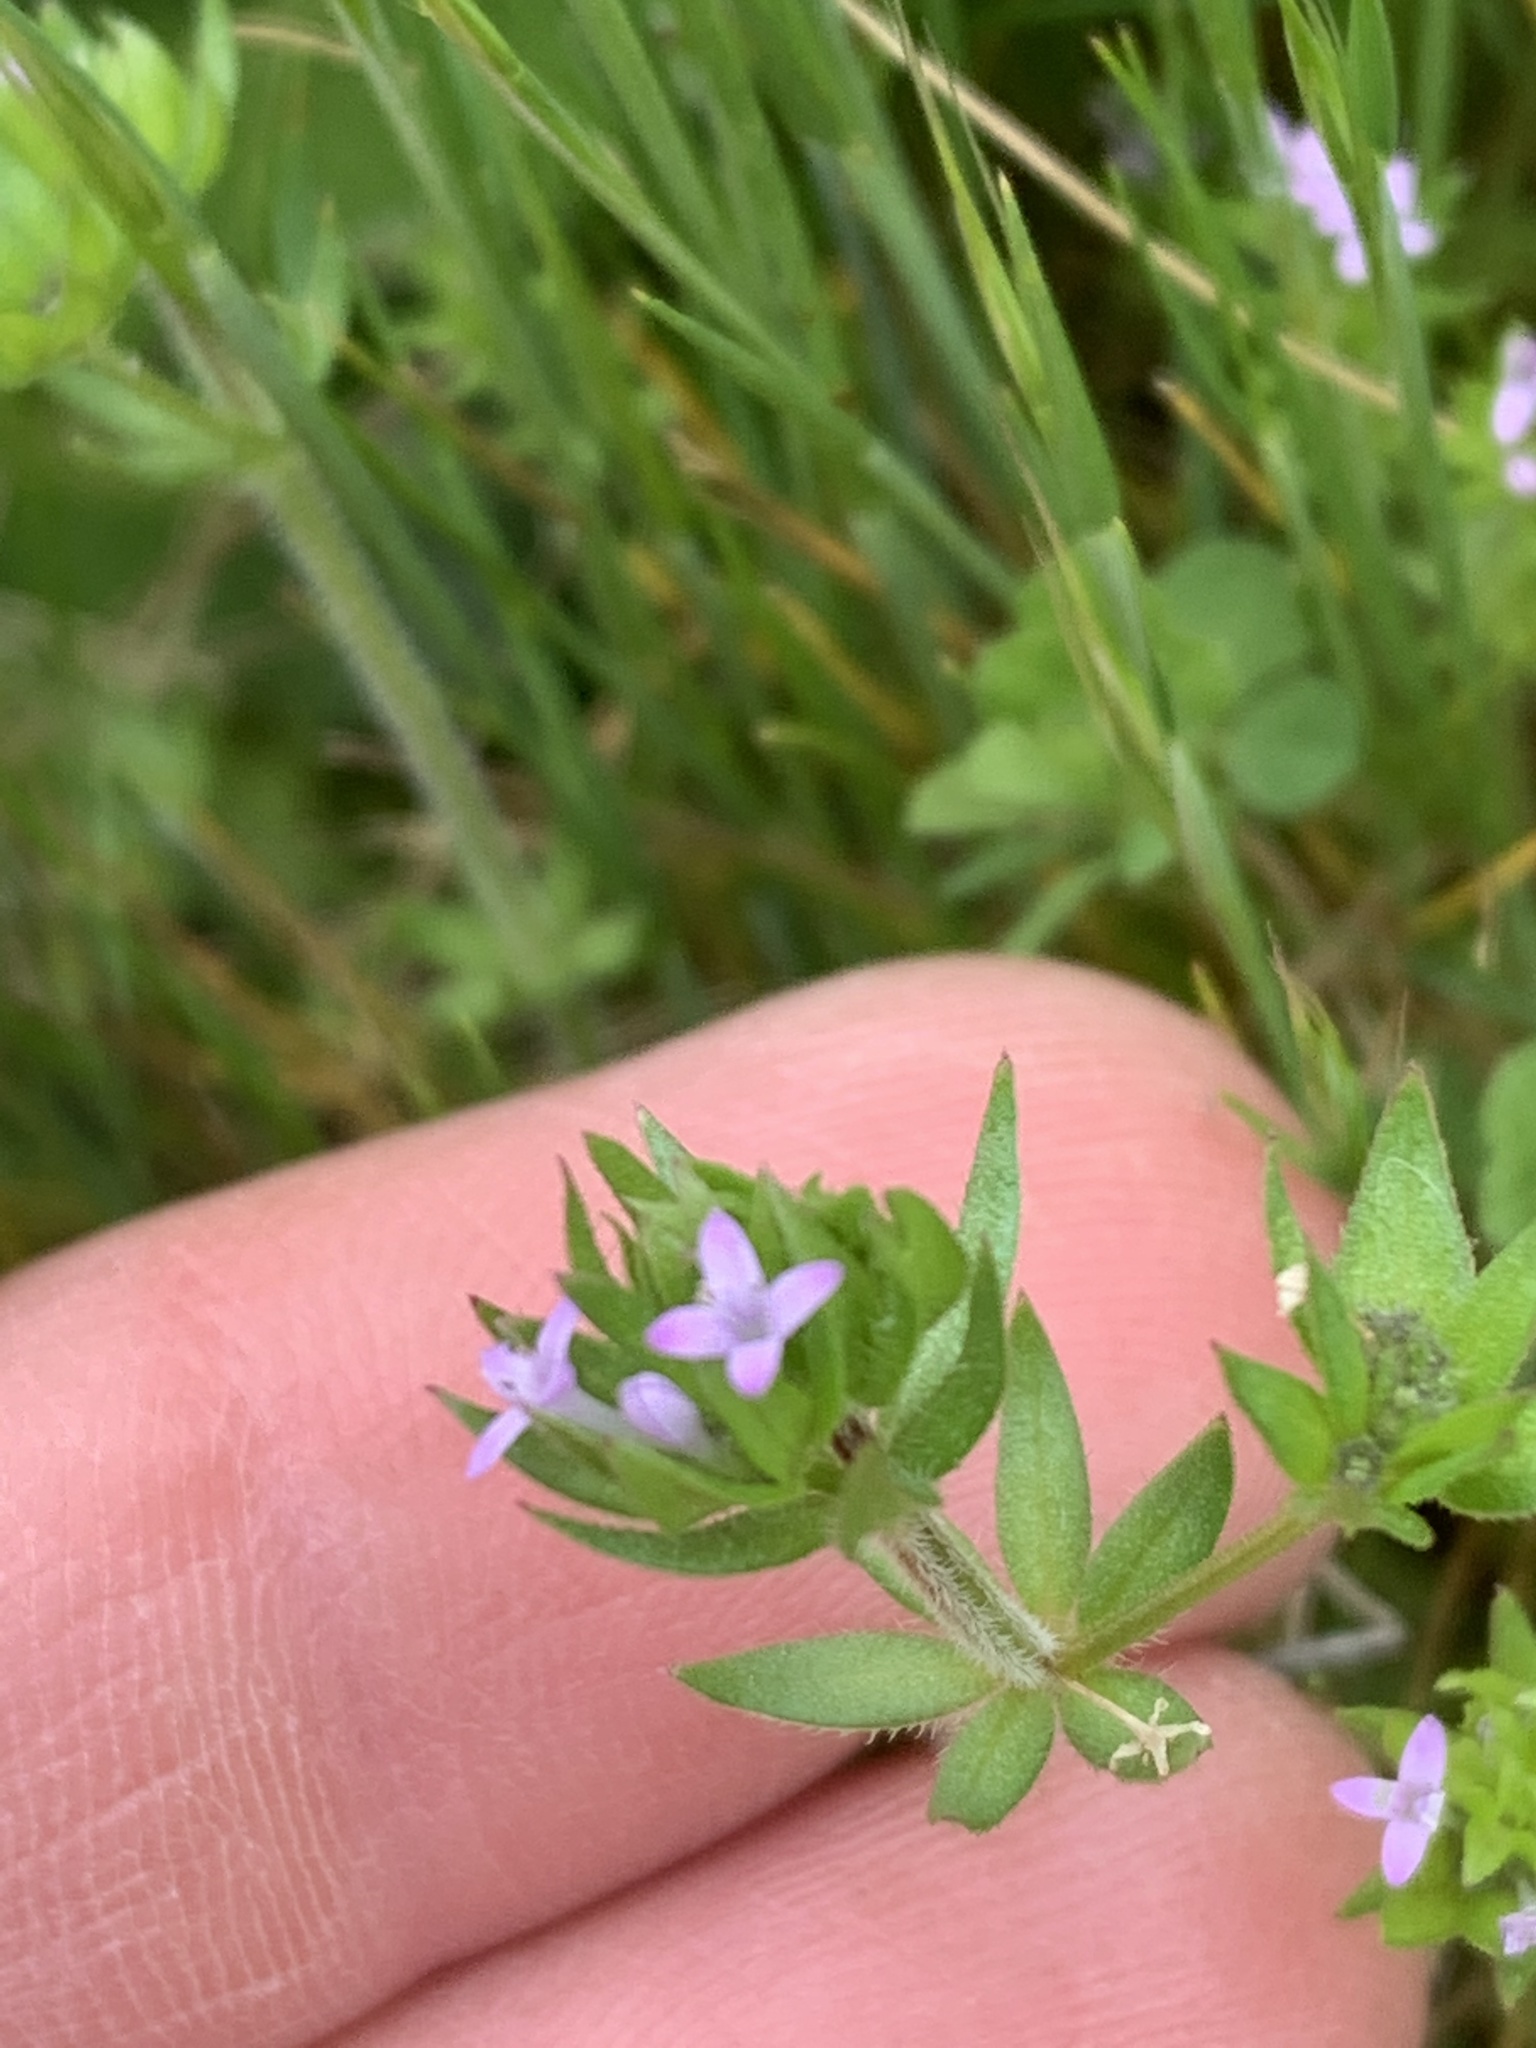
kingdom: Plantae
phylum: Tracheophyta
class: Magnoliopsida
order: Gentianales
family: Rubiaceae
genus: Sherardia
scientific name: Sherardia arvensis
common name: Field madder
